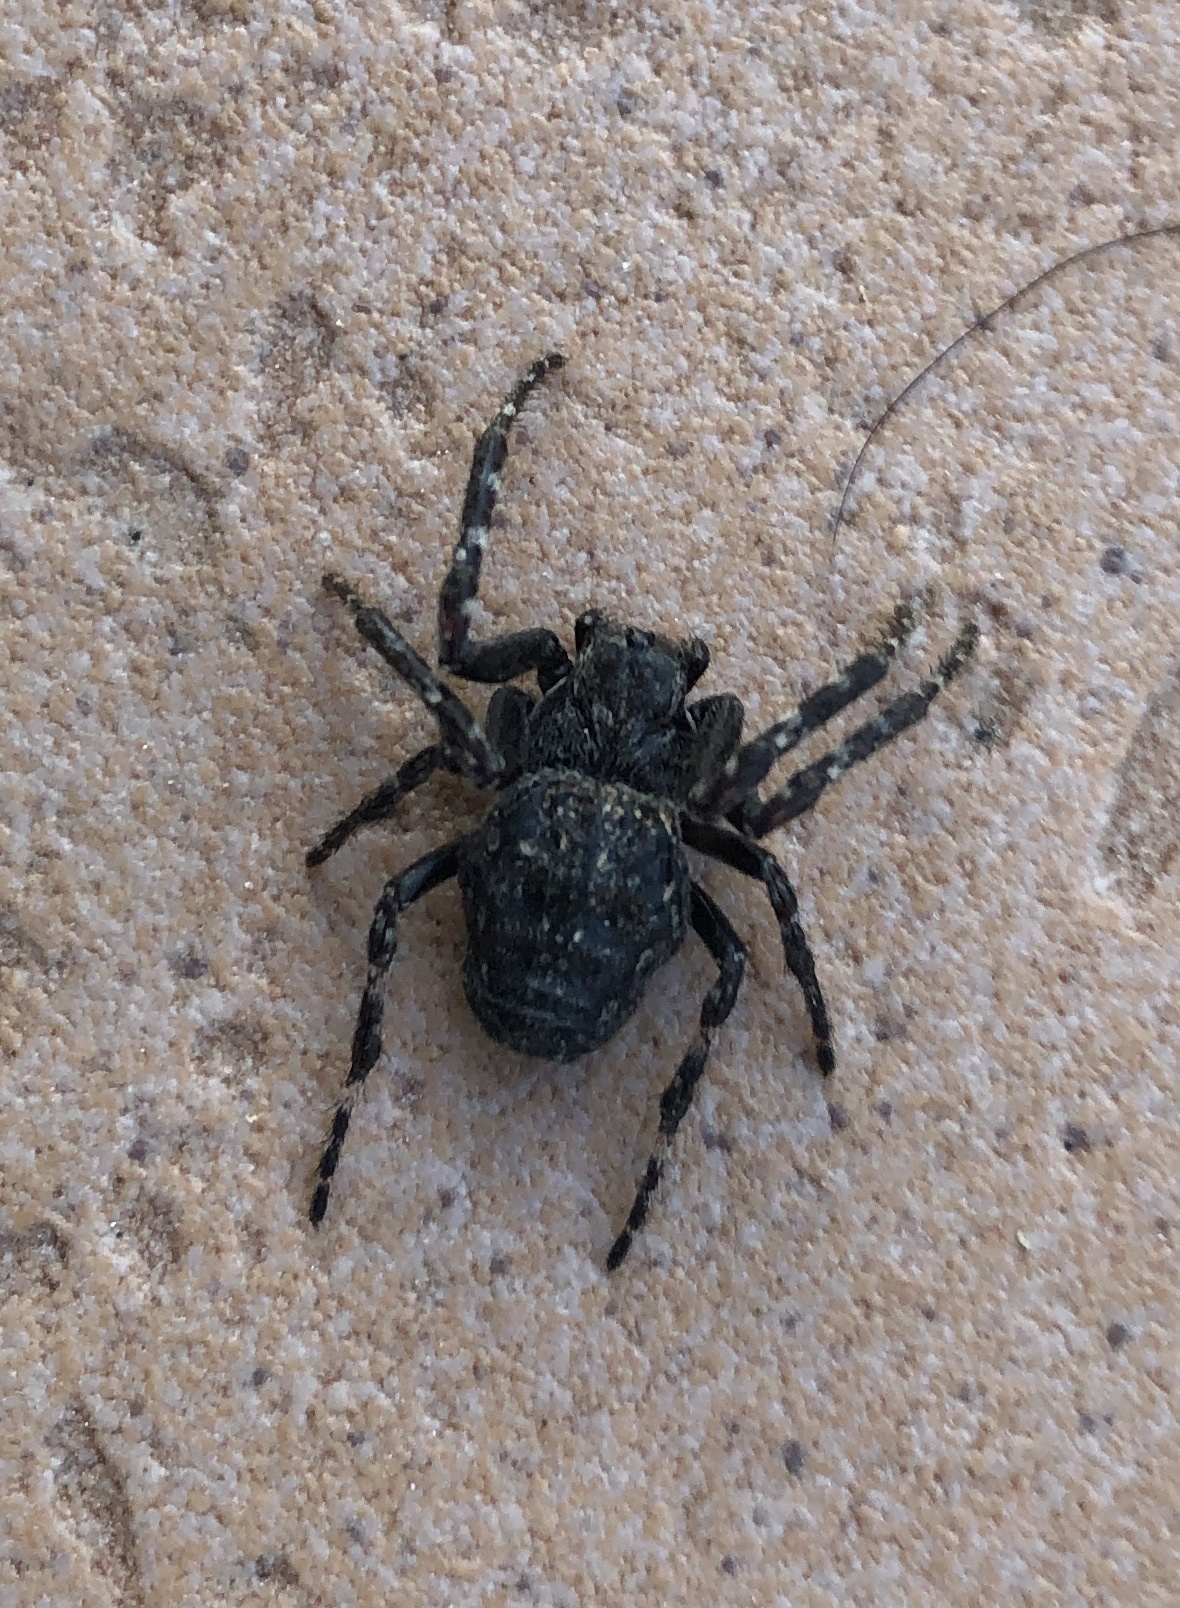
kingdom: Animalia
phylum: Arthropoda
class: Arachnida
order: Araneae
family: Araneidae
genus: Nuctenea
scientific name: Nuctenea umbratica
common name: Toad spider
